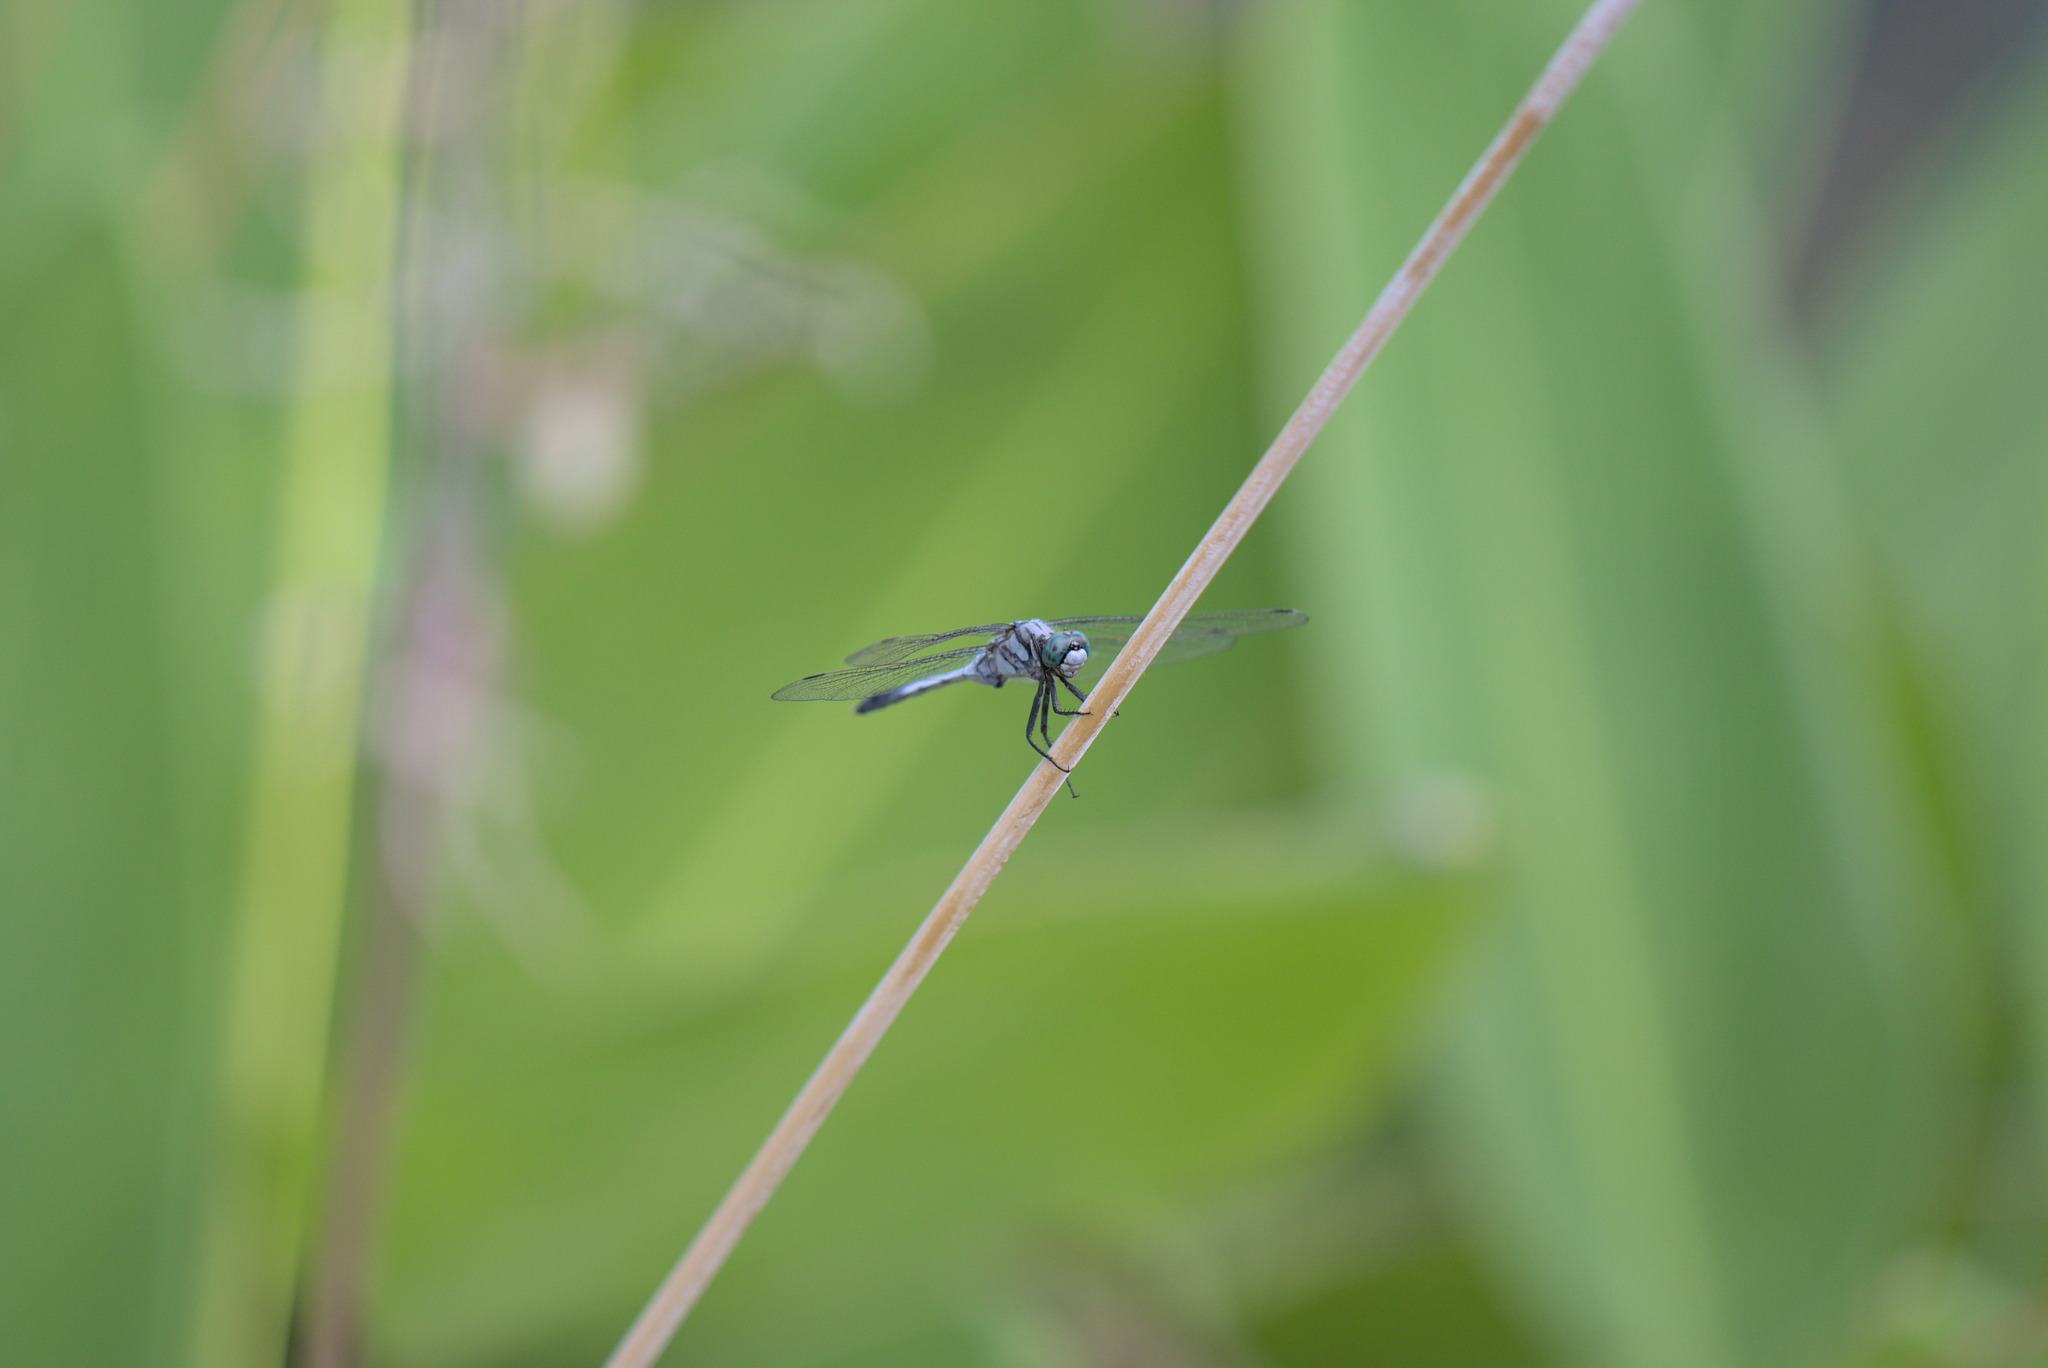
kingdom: Animalia
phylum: Arthropoda
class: Insecta
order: Odonata
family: Libellulidae
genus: Orthetrum
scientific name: Orthetrum albistylum
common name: White-tailed skimmer
